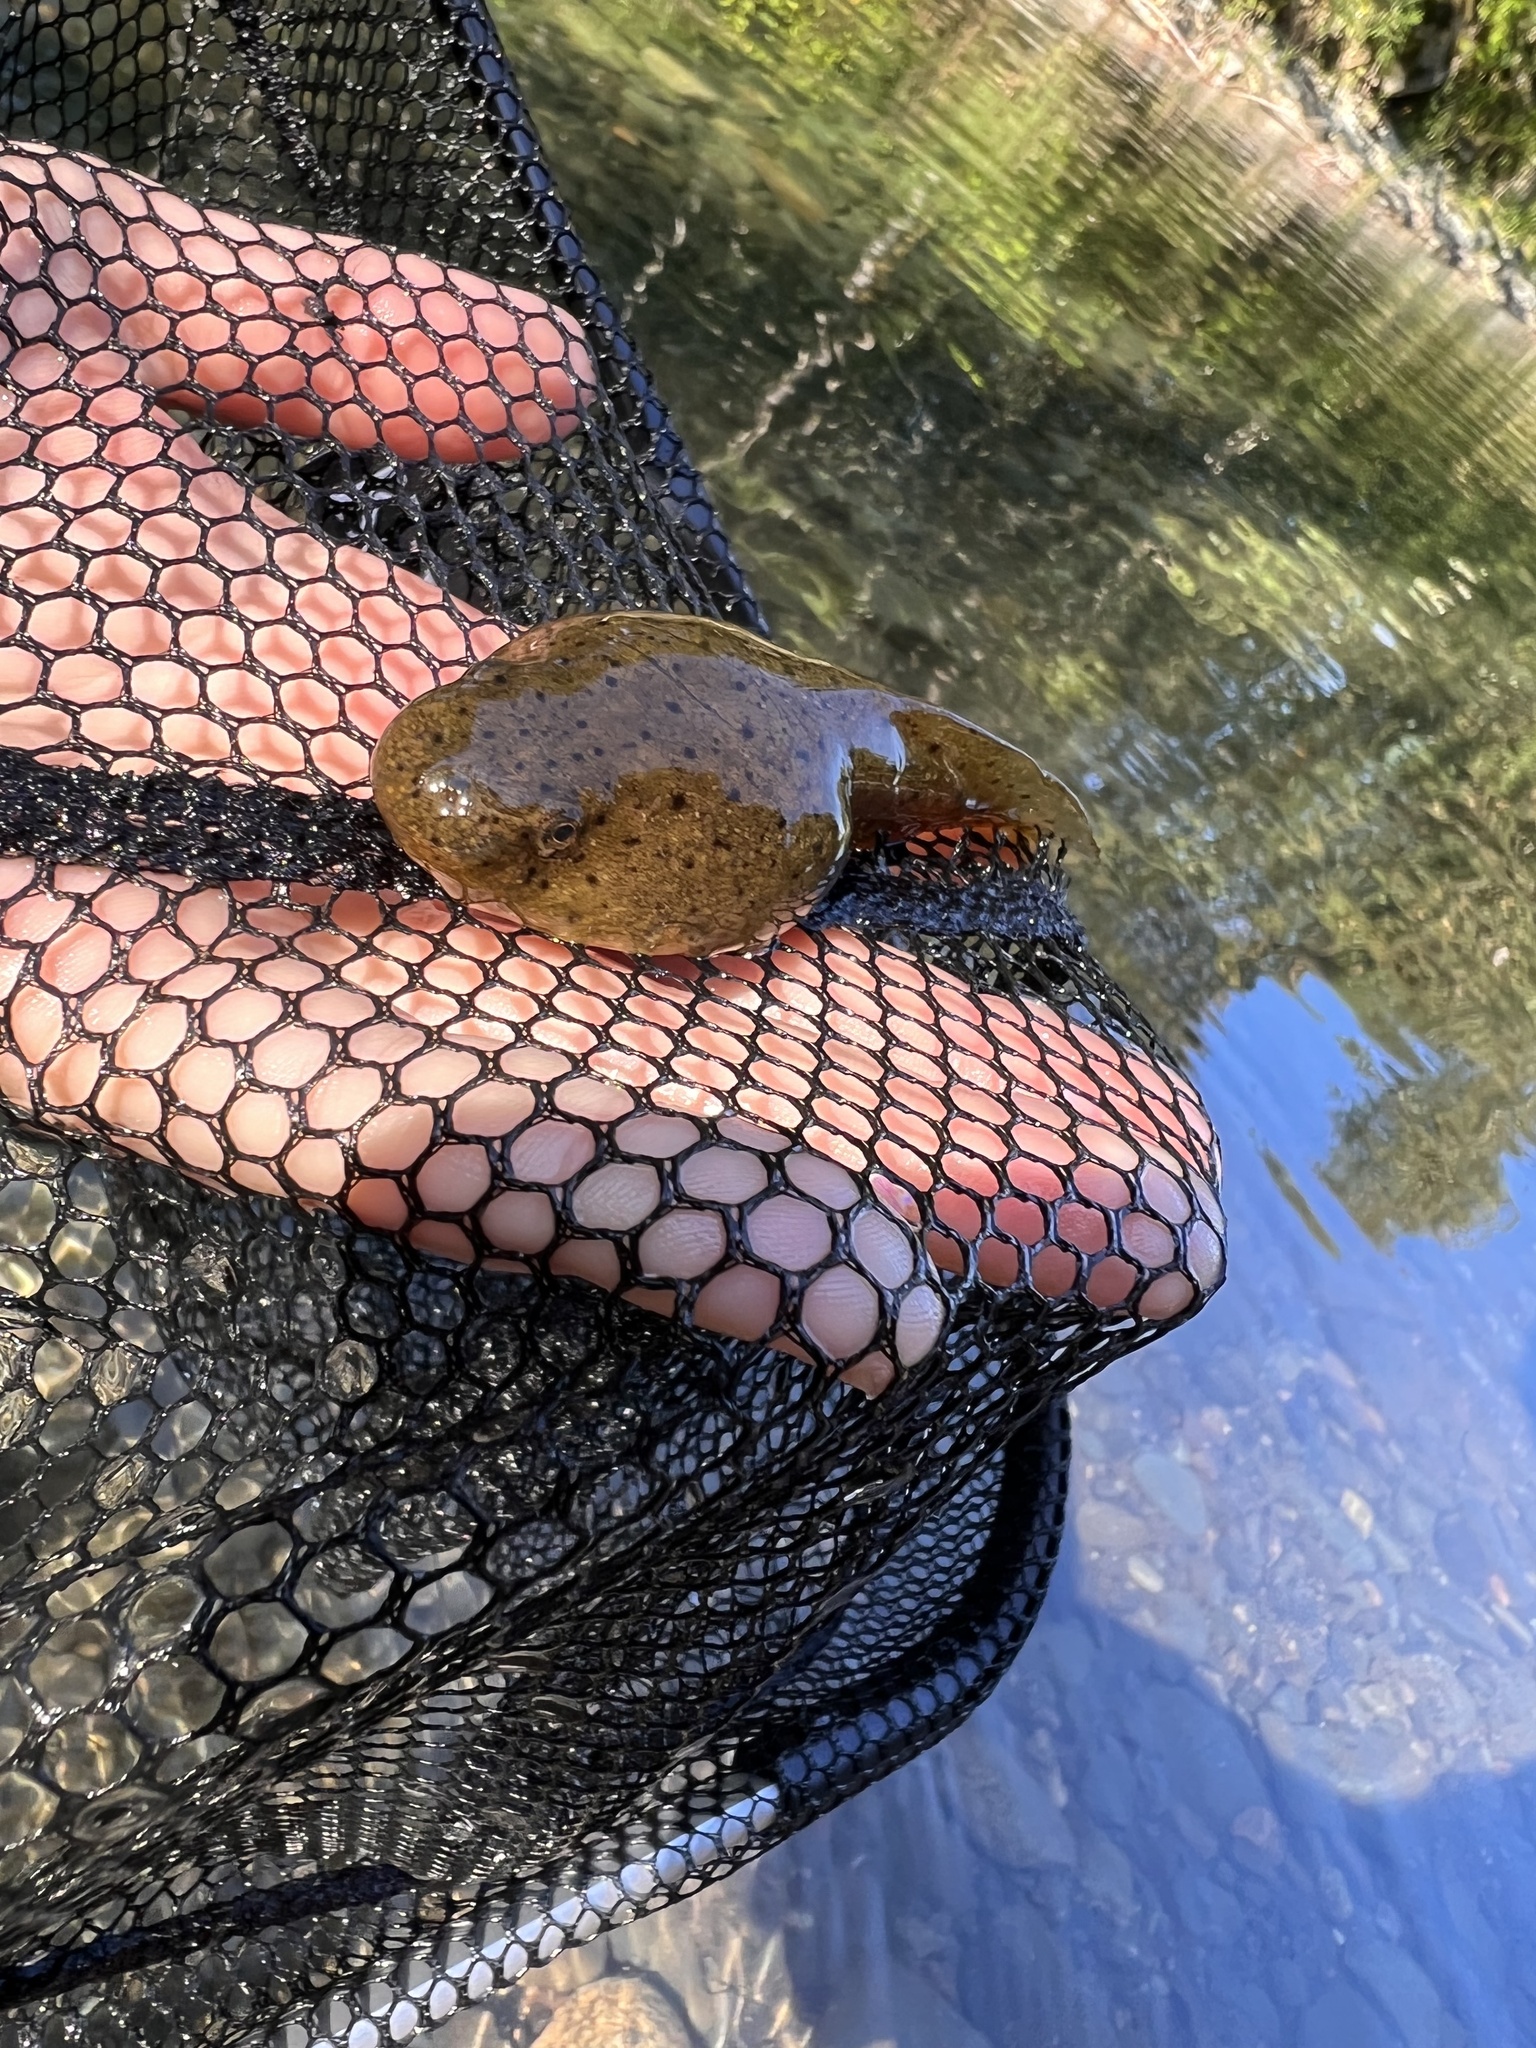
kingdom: Animalia
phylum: Chordata
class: Amphibia
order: Anura
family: Ranidae
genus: Lithobates
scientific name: Lithobates catesbeianus
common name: American bullfrog
